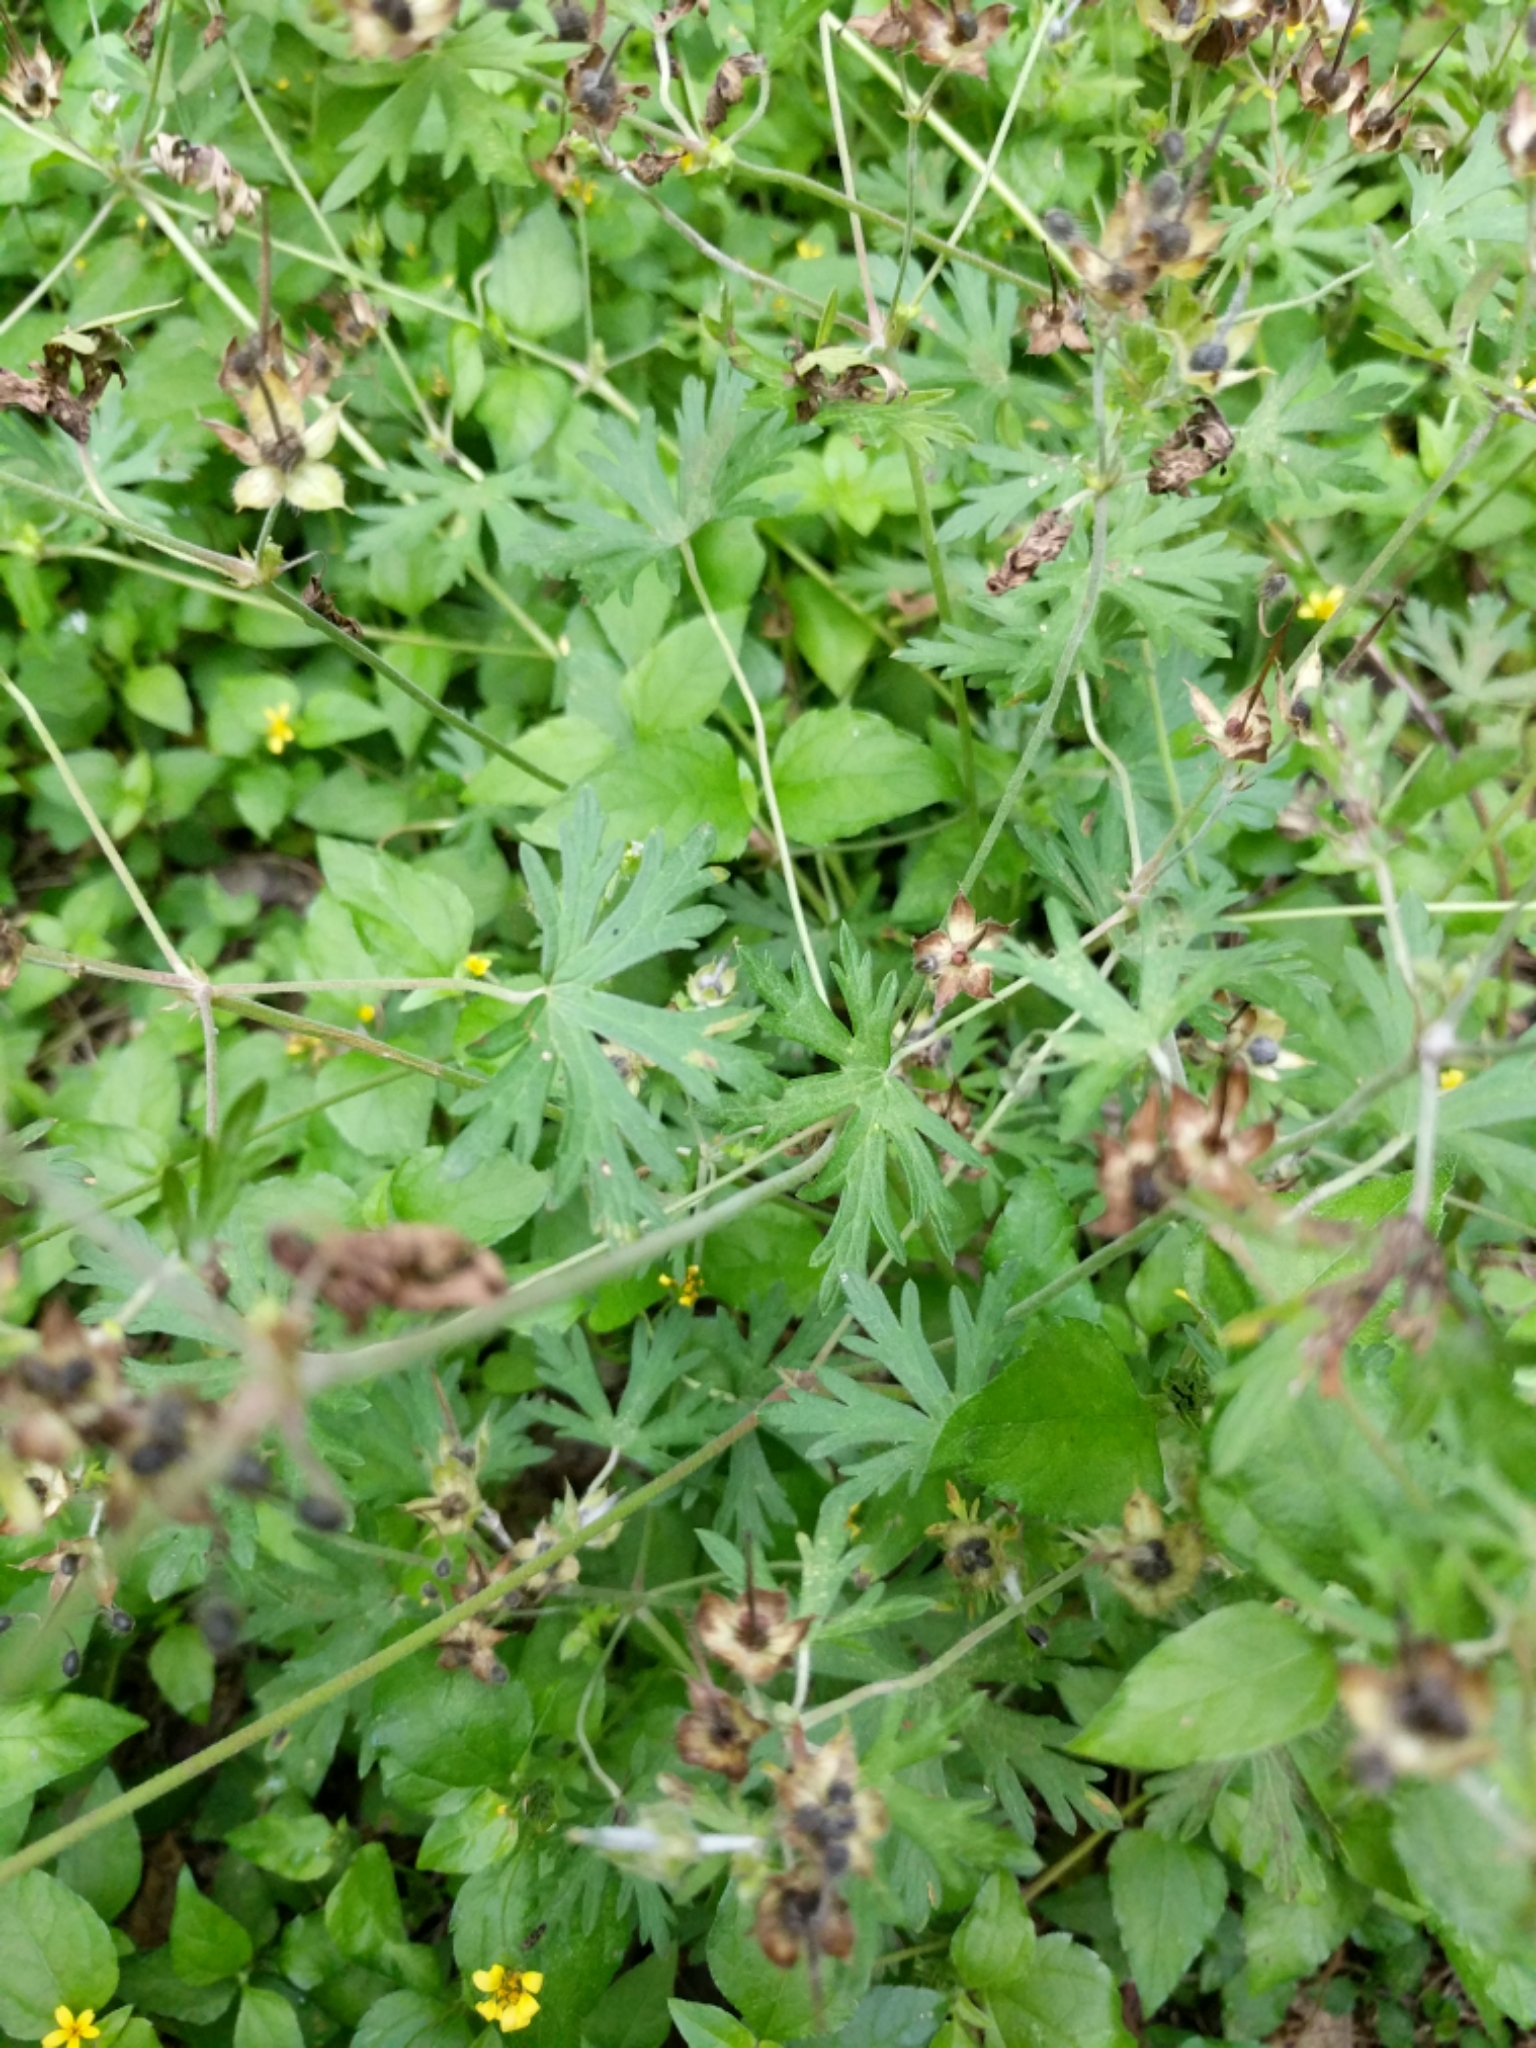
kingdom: Plantae
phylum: Tracheophyta
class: Magnoliopsida
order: Geraniales
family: Geraniaceae
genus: Geranium
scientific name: Geranium carolinianum
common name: Carolina crane's-bill
